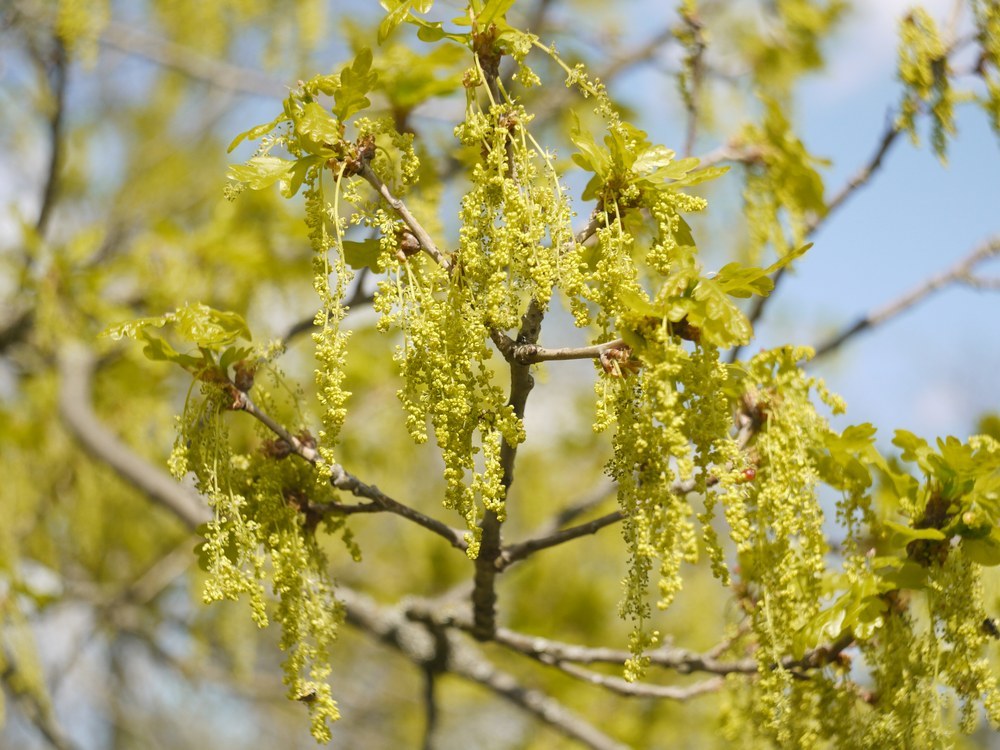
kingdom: Plantae
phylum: Tracheophyta
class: Magnoliopsida
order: Fagales
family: Fagaceae
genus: Quercus
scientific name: Quercus robur
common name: Pedunculate oak
